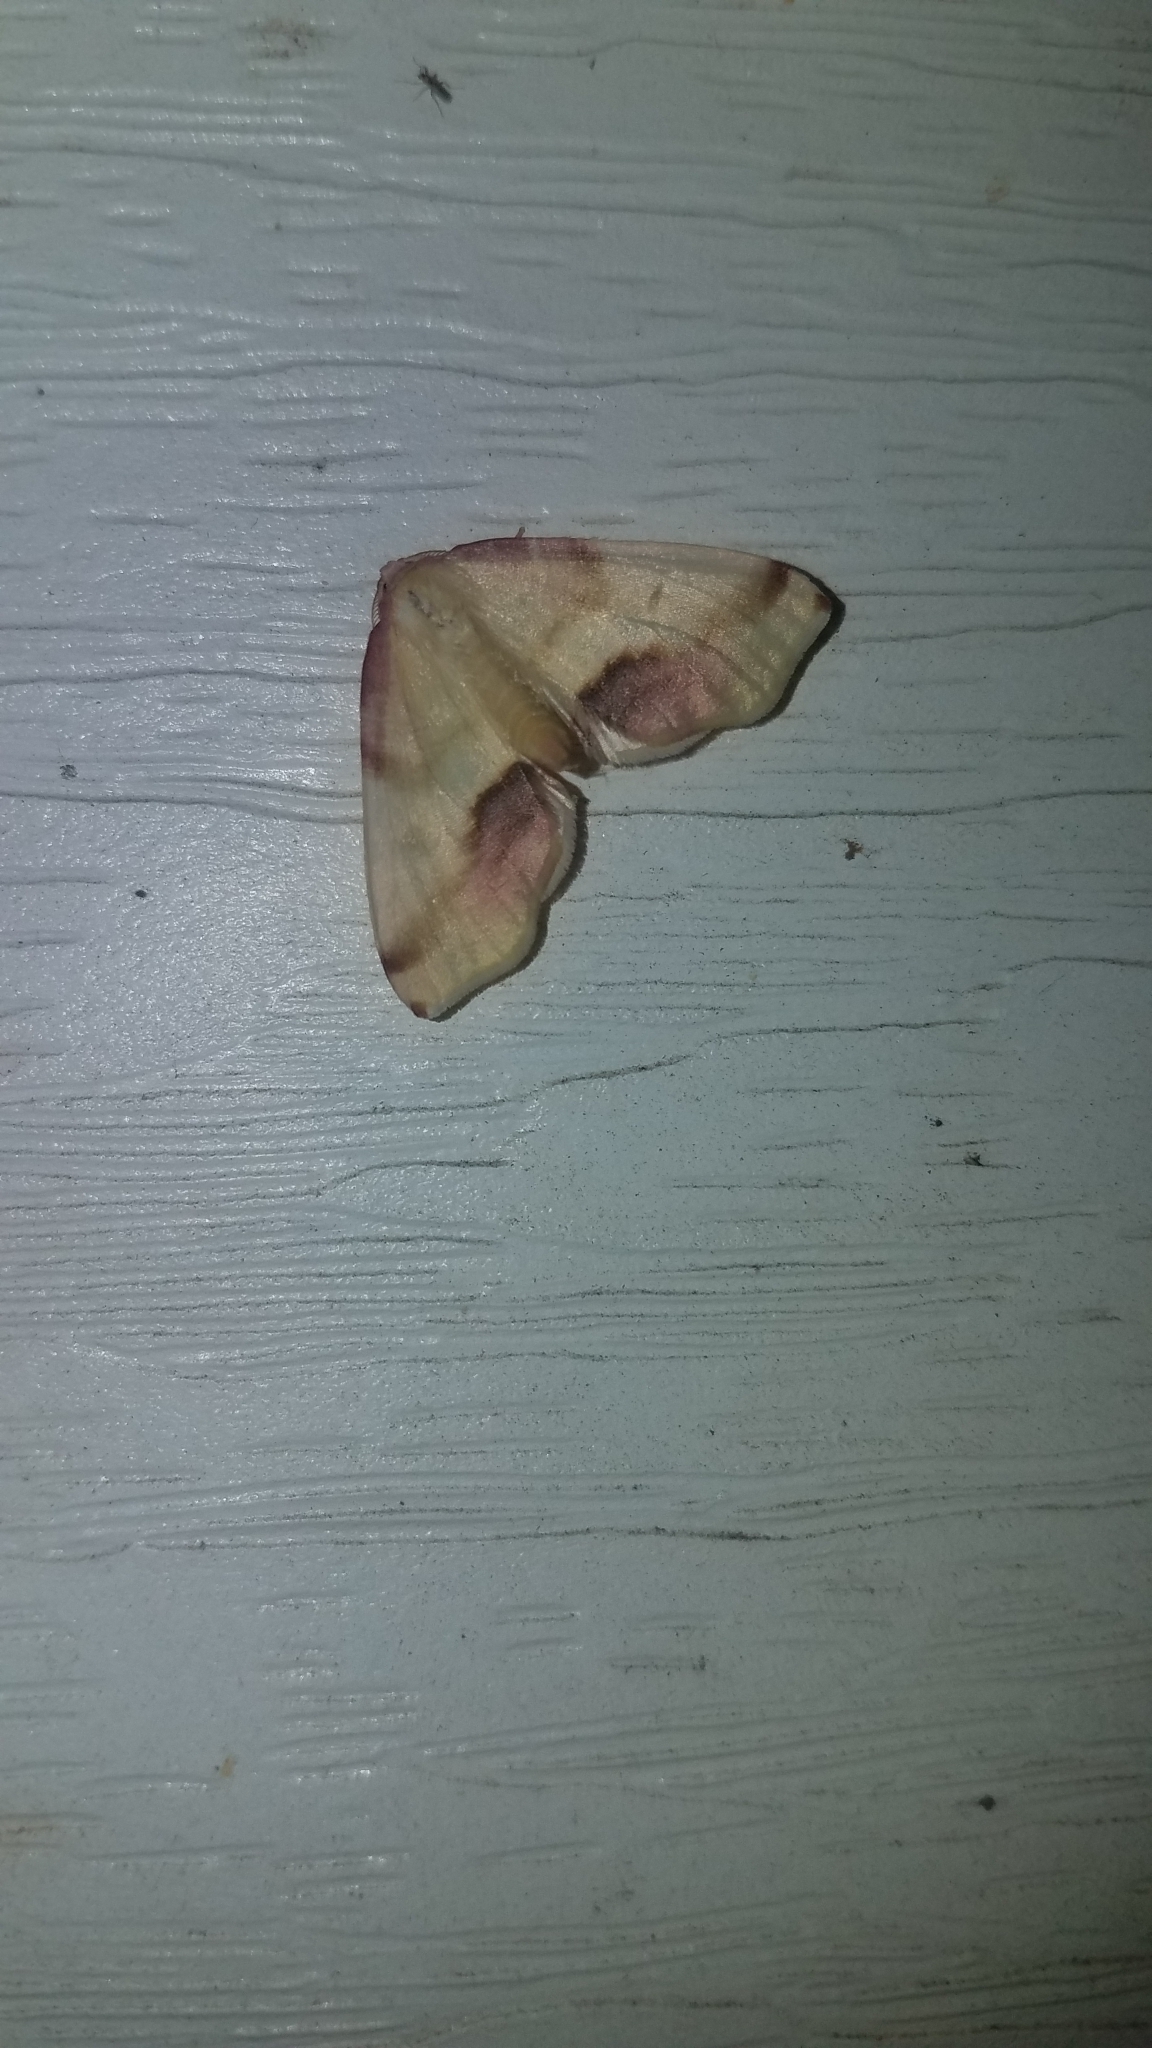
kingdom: Animalia
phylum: Arthropoda
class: Insecta
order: Lepidoptera
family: Geometridae
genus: Plagodis
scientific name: Plagodis serinaria
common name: Lemon plagodis
